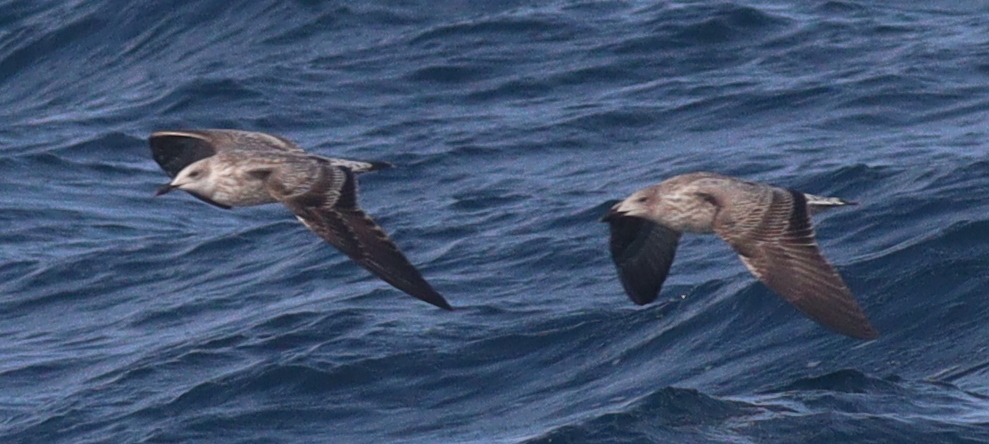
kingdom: Animalia
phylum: Chordata
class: Aves
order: Charadriiformes
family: Laridae
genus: Larus
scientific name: Larus fuscus
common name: Lesser black-backed gull
